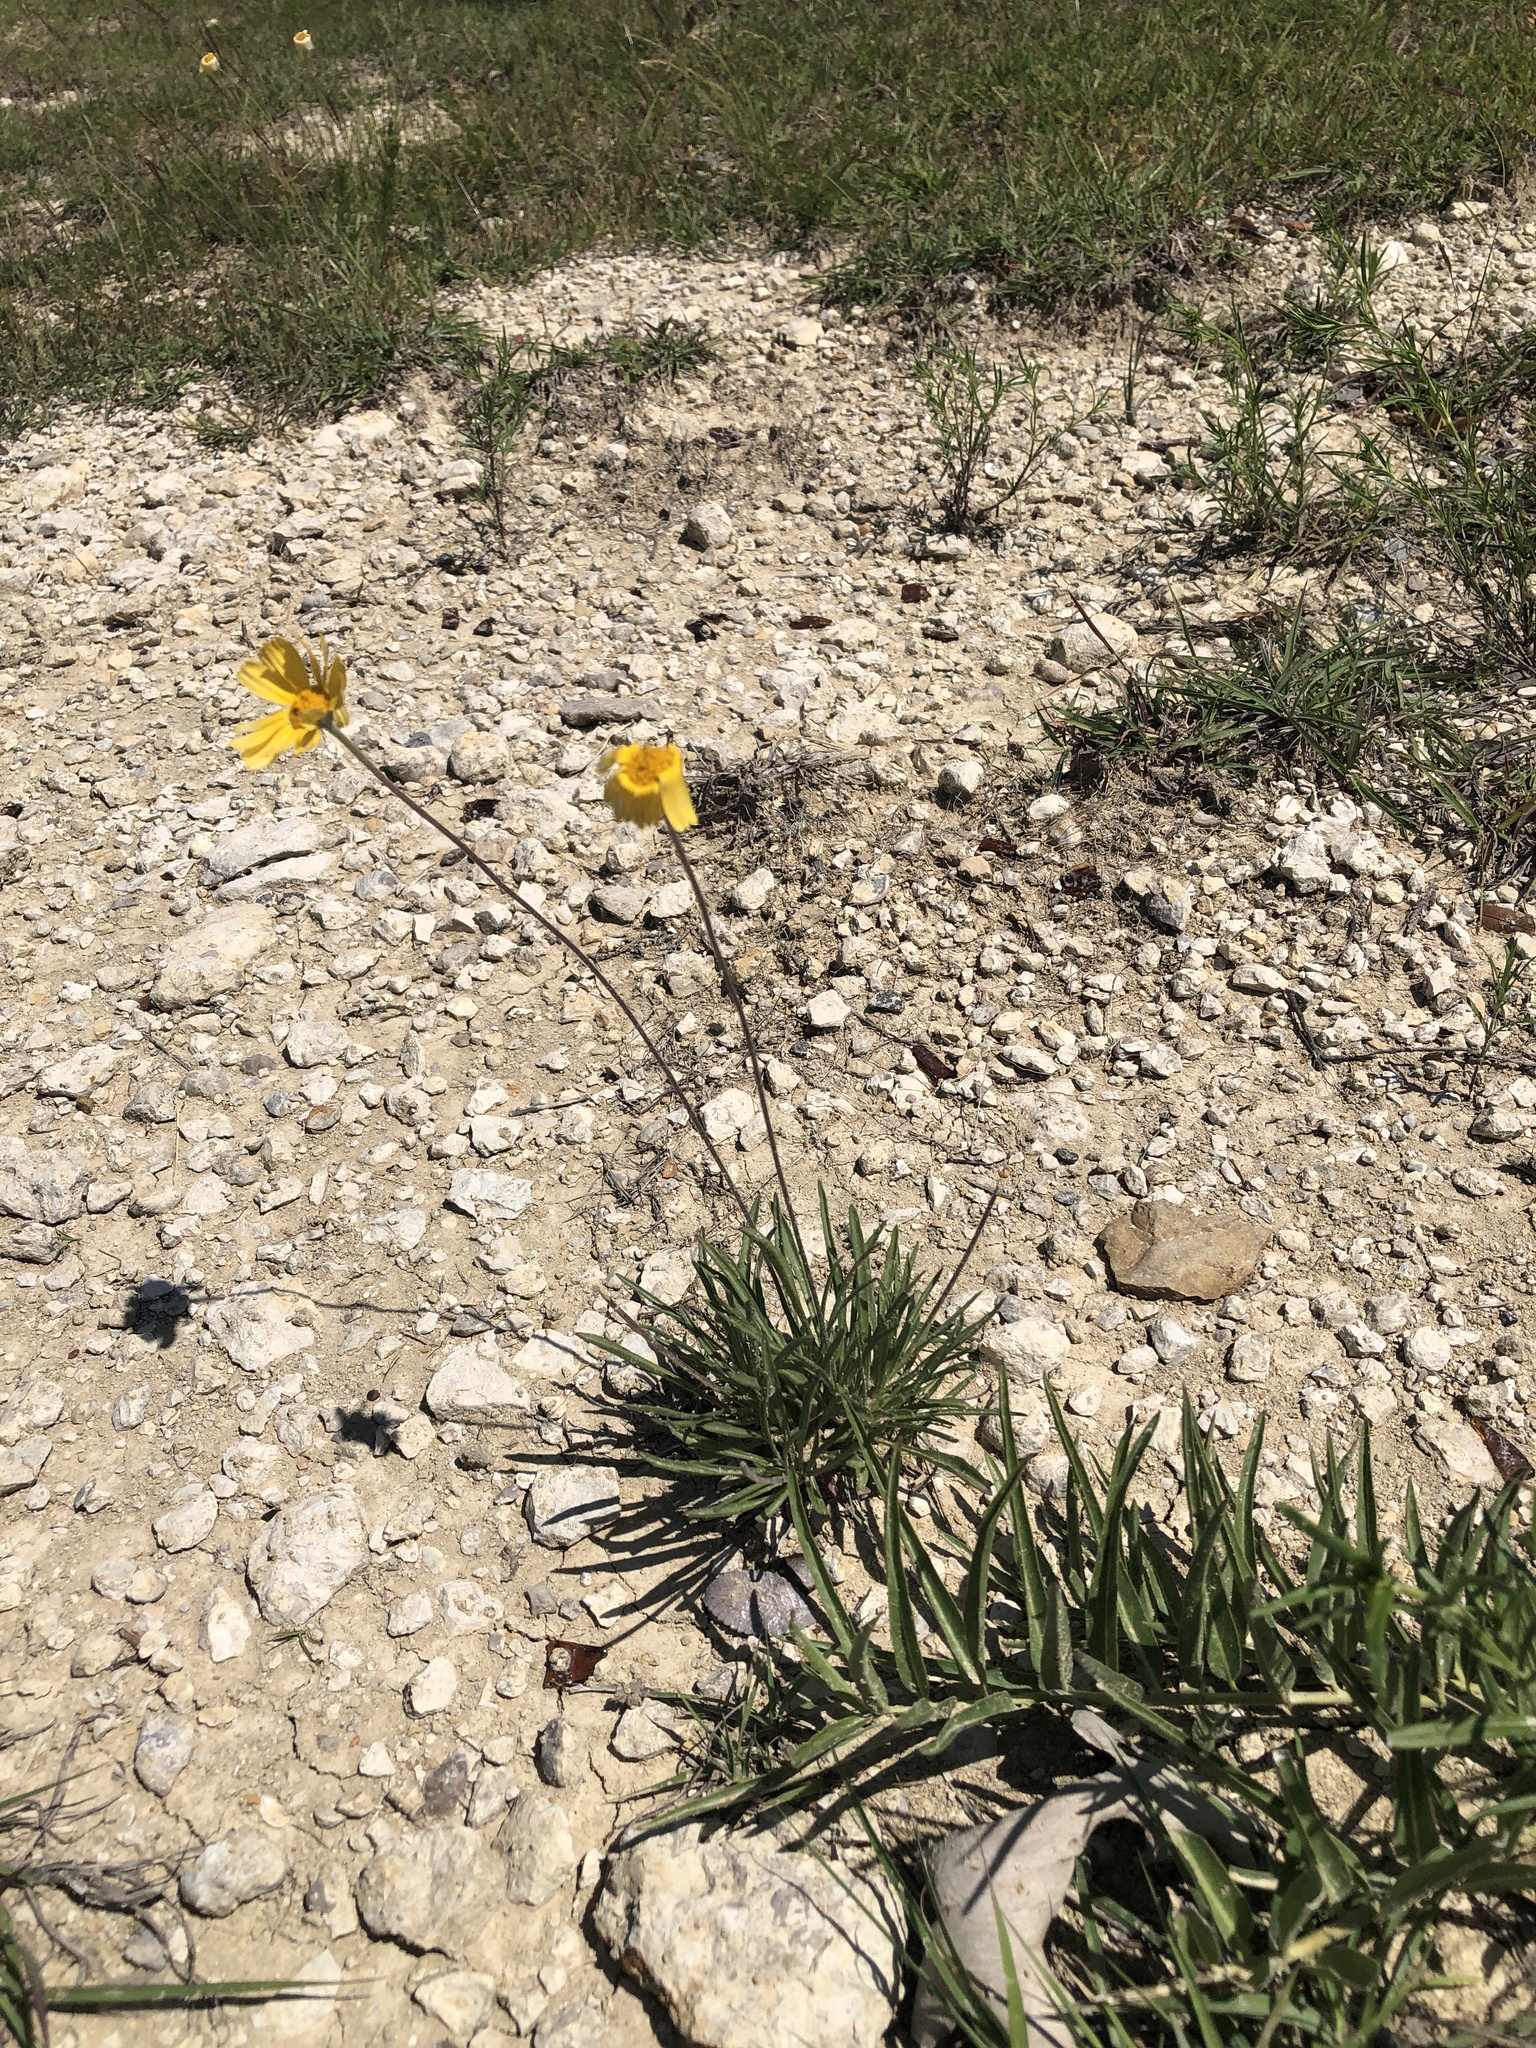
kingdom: Plantae
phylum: Tracheophyta
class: Magnoliopsida
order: Asterales
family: Asteraceae
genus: Tetraneuris
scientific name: Tetraneuris scaposa
